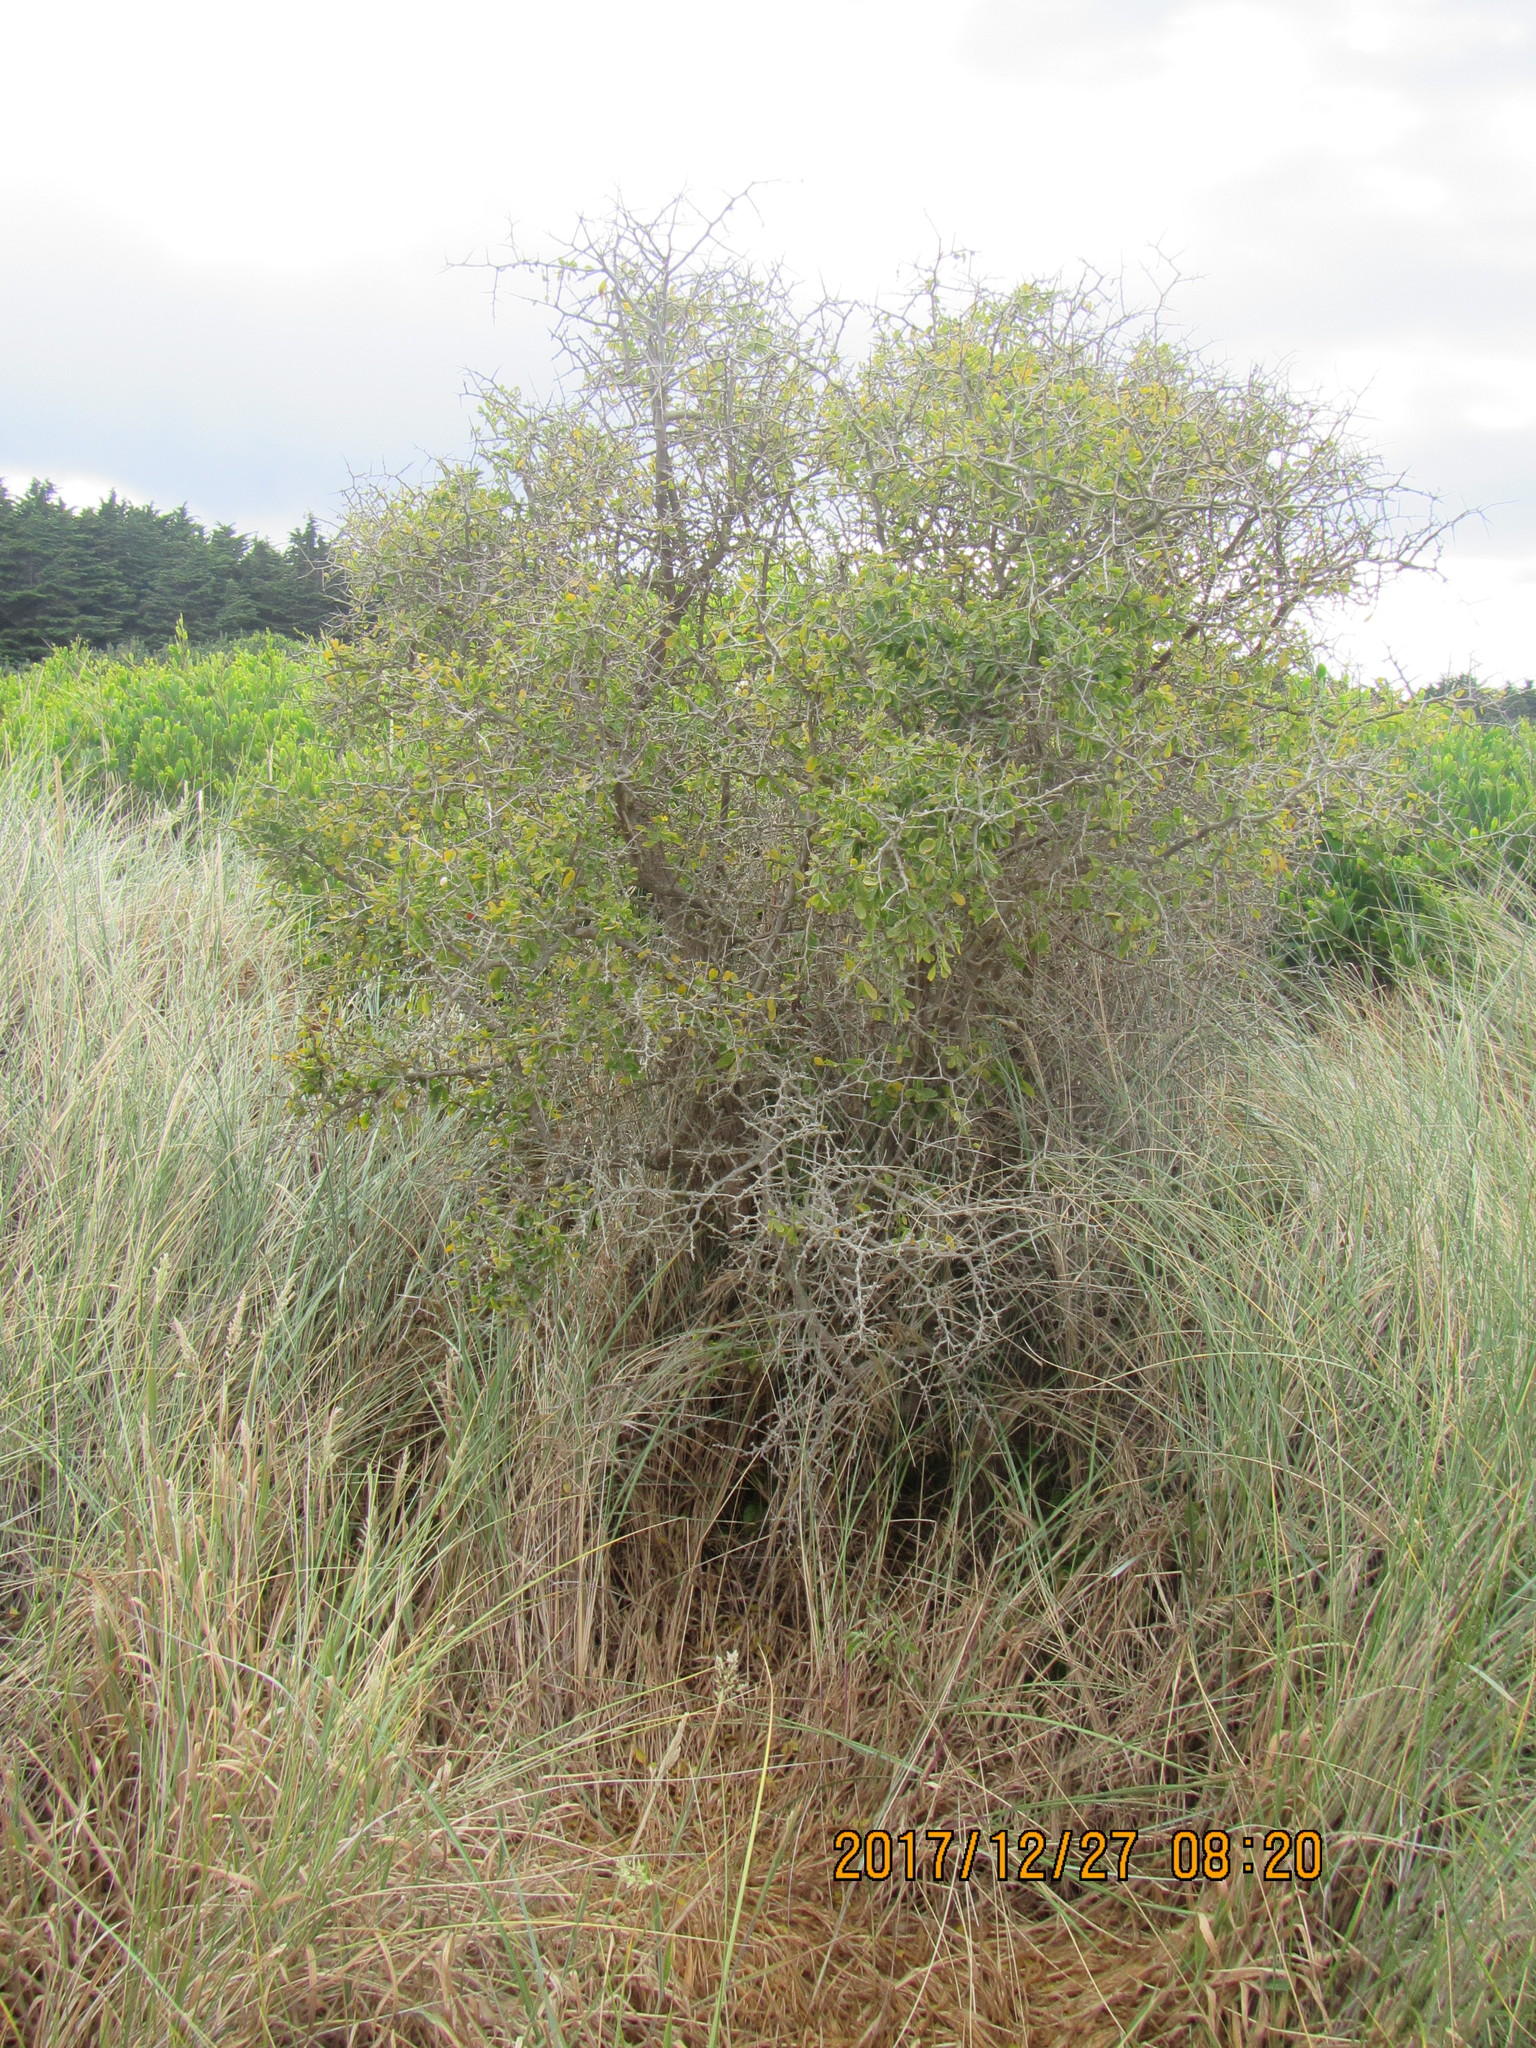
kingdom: Plantae
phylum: Tracheophyta
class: Magnoliopsida
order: Solanales
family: Solanaceae
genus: Lycium
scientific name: Lycium ferocissimum
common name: African boxthorn
